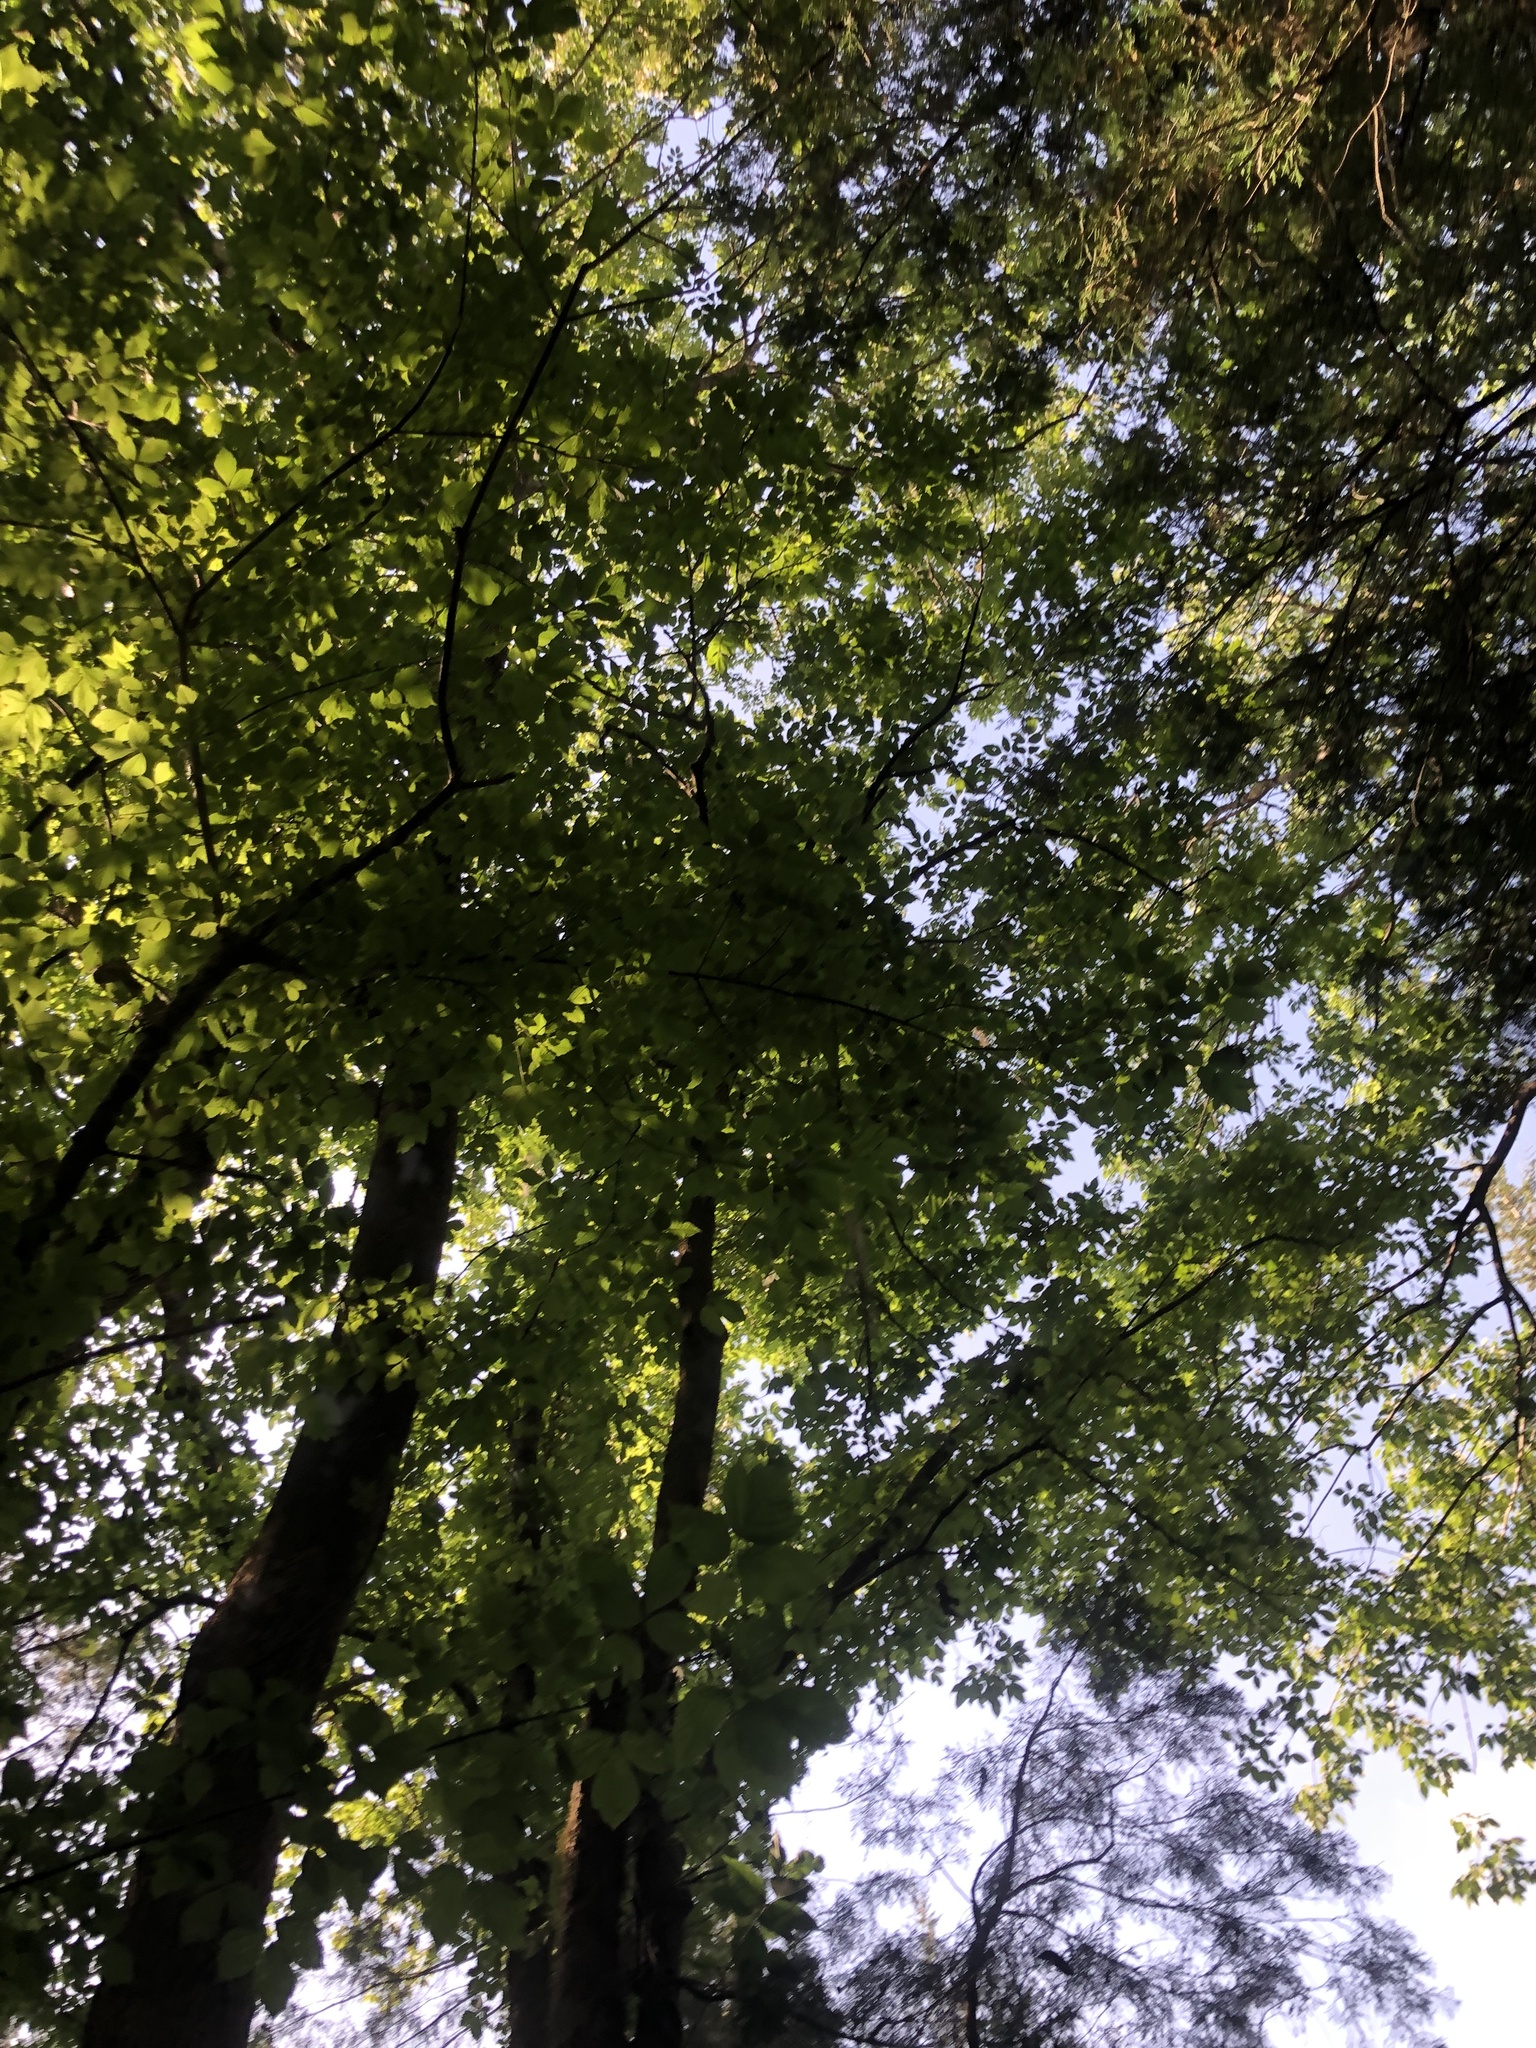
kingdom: Plantae
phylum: Tracheophyta
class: Magnoliopsida
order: Lamiales
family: Oleaceae
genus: Fraxinus
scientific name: Fraxinus americana
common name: White ash
